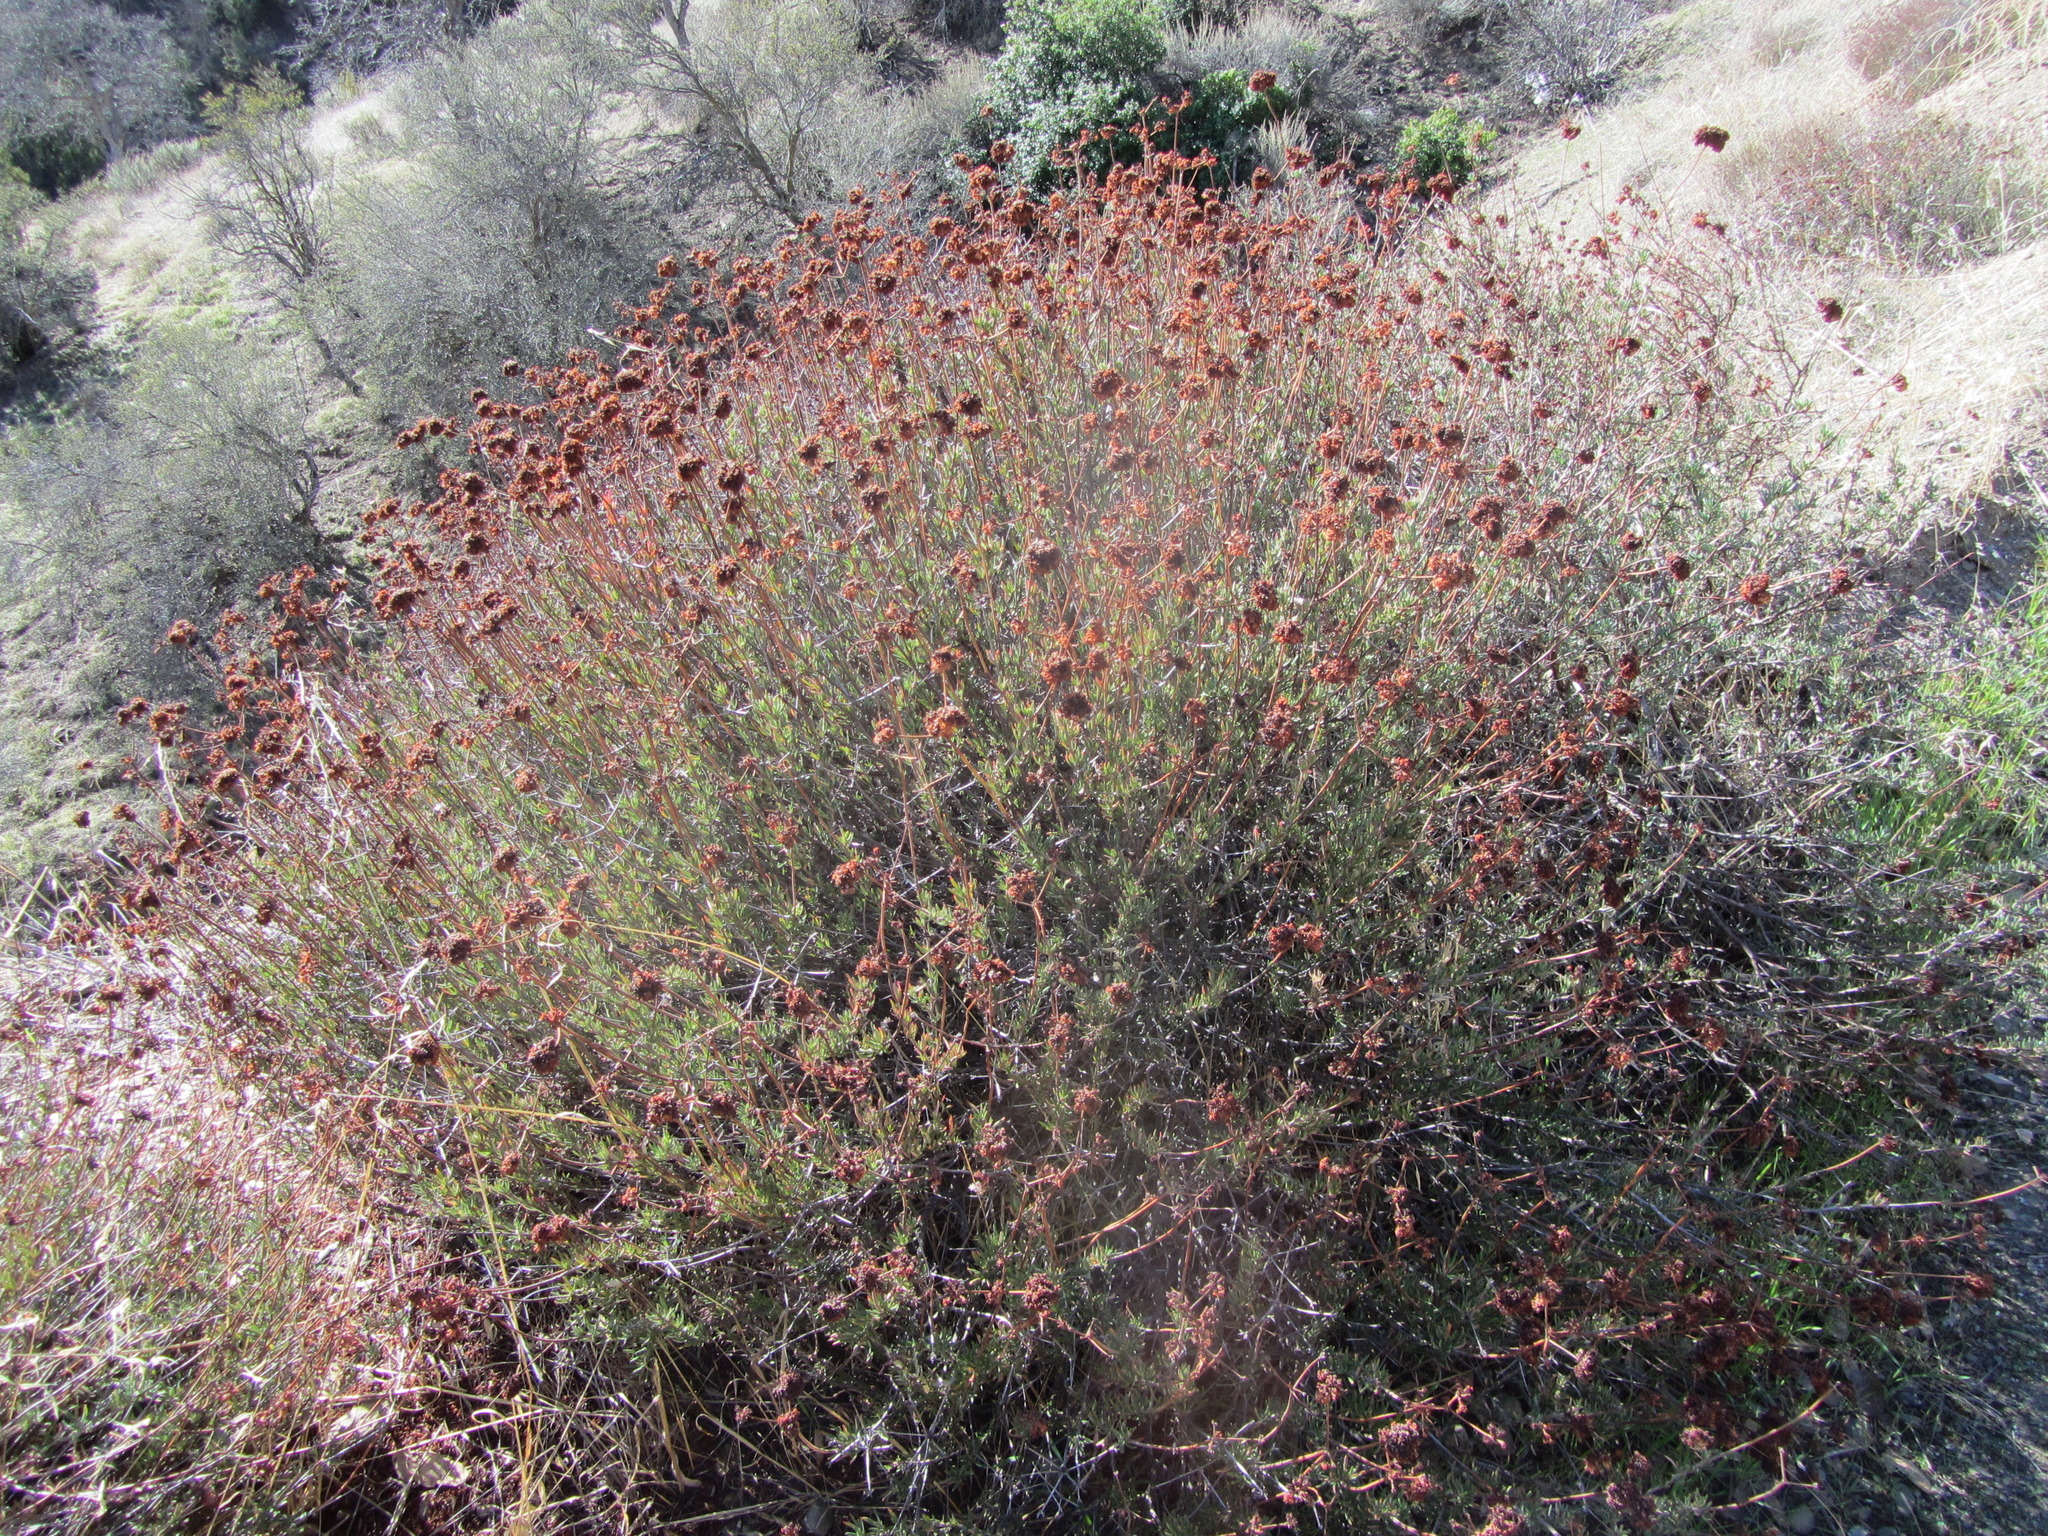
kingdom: Plantae
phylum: Tracheophyta
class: Magnoliopsida
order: Caryophyllales
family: Polygonaceae
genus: Eriogonum
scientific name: Eriogonum fasciculatum
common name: California wild buckwheat
